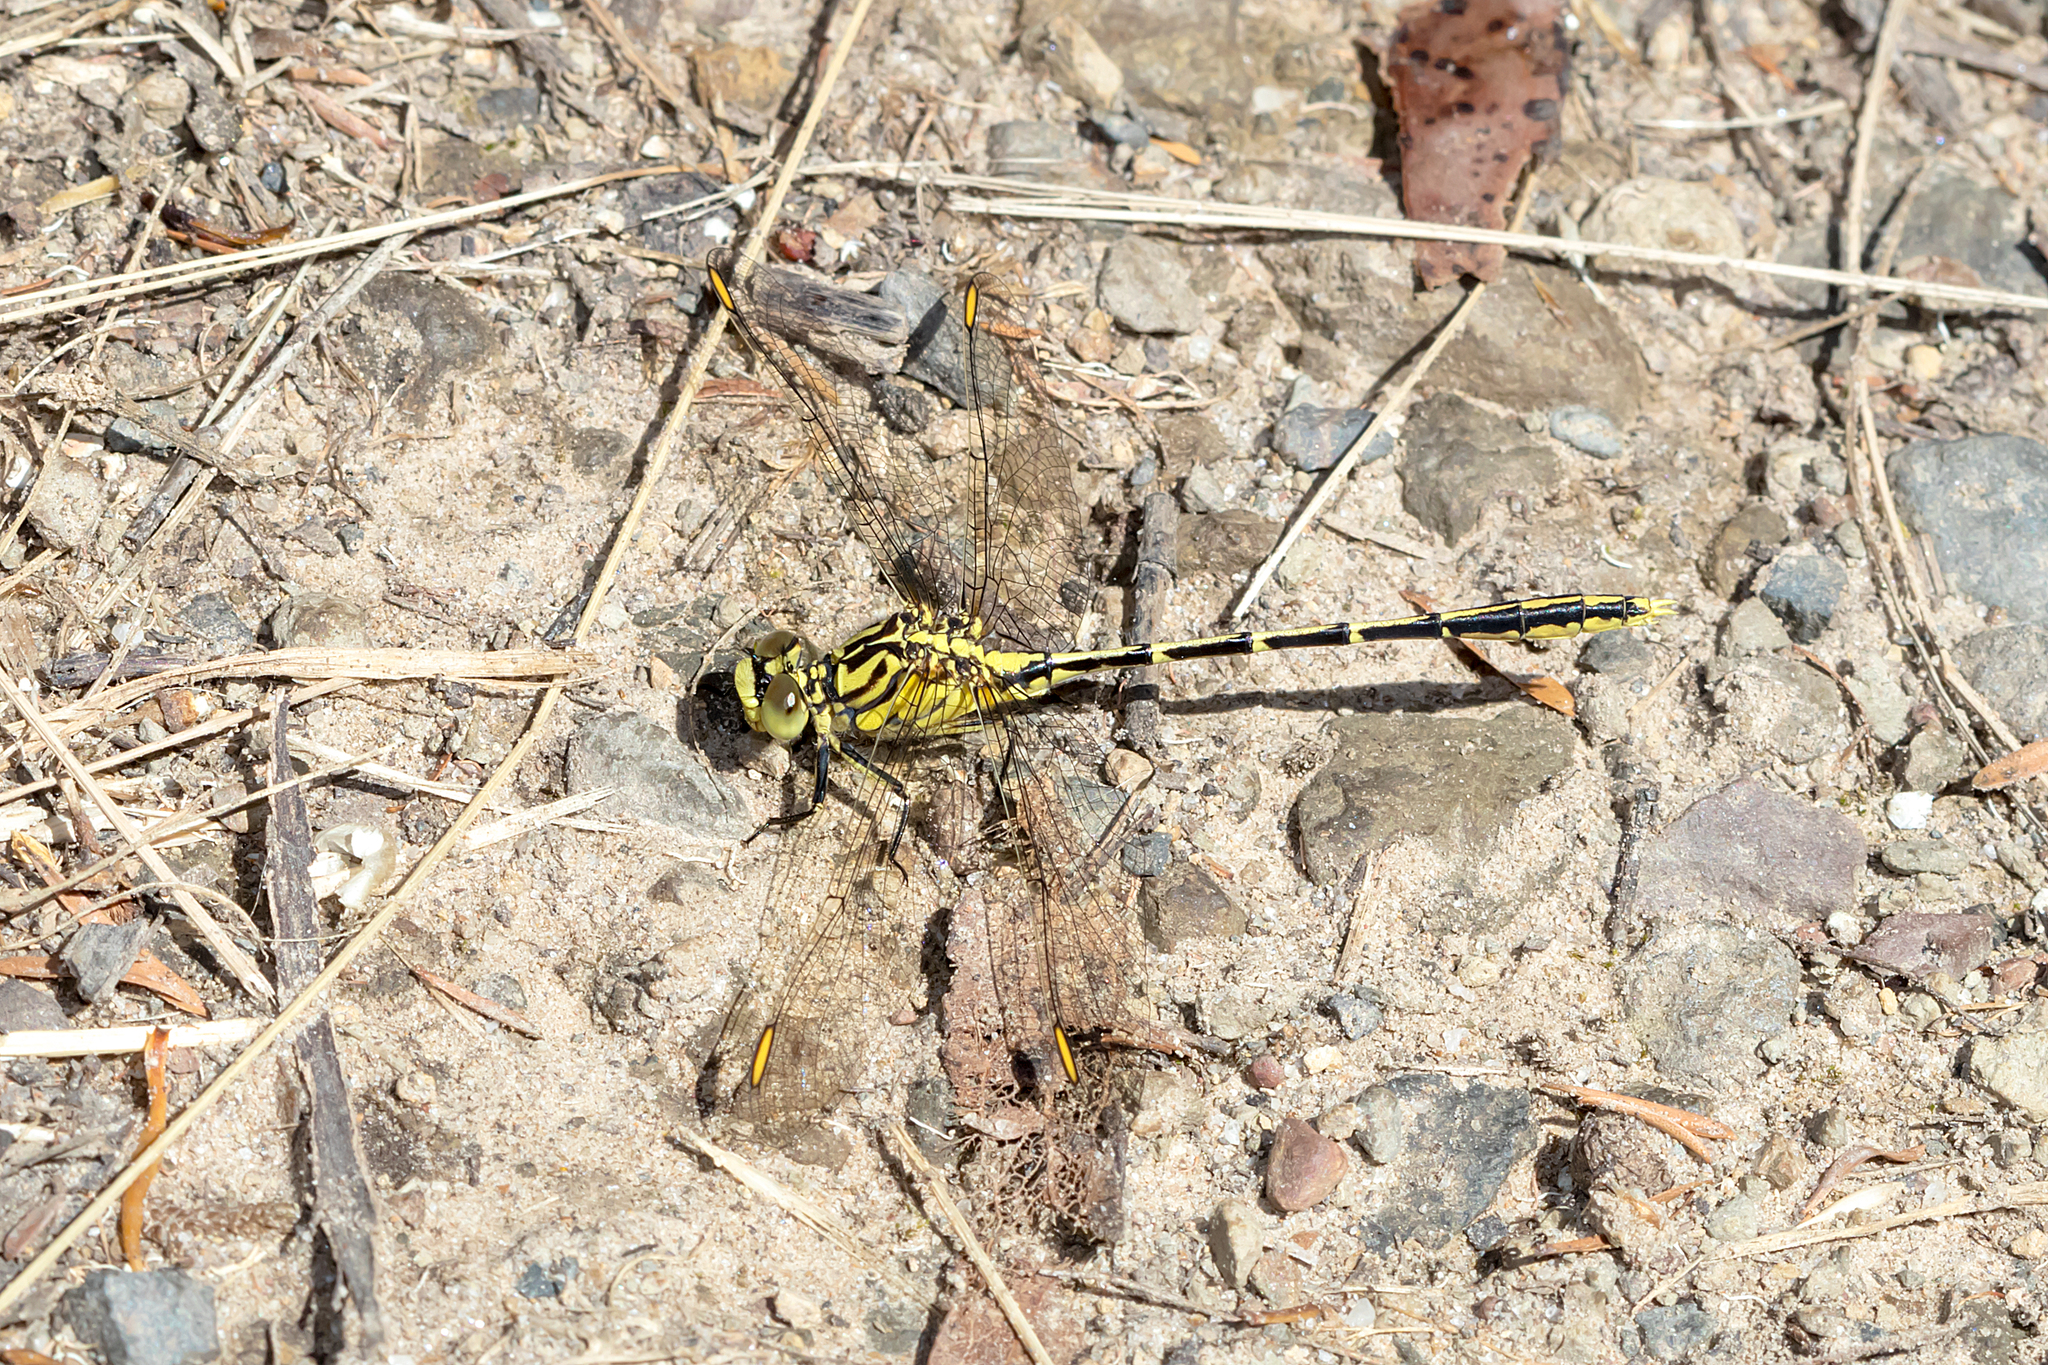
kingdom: Animalia
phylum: Arthropoda
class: Insecta
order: Odonata
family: Gomphidae
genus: Austrogomphus
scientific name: Austrogomphus guerini
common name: Yellow-striped hunter
